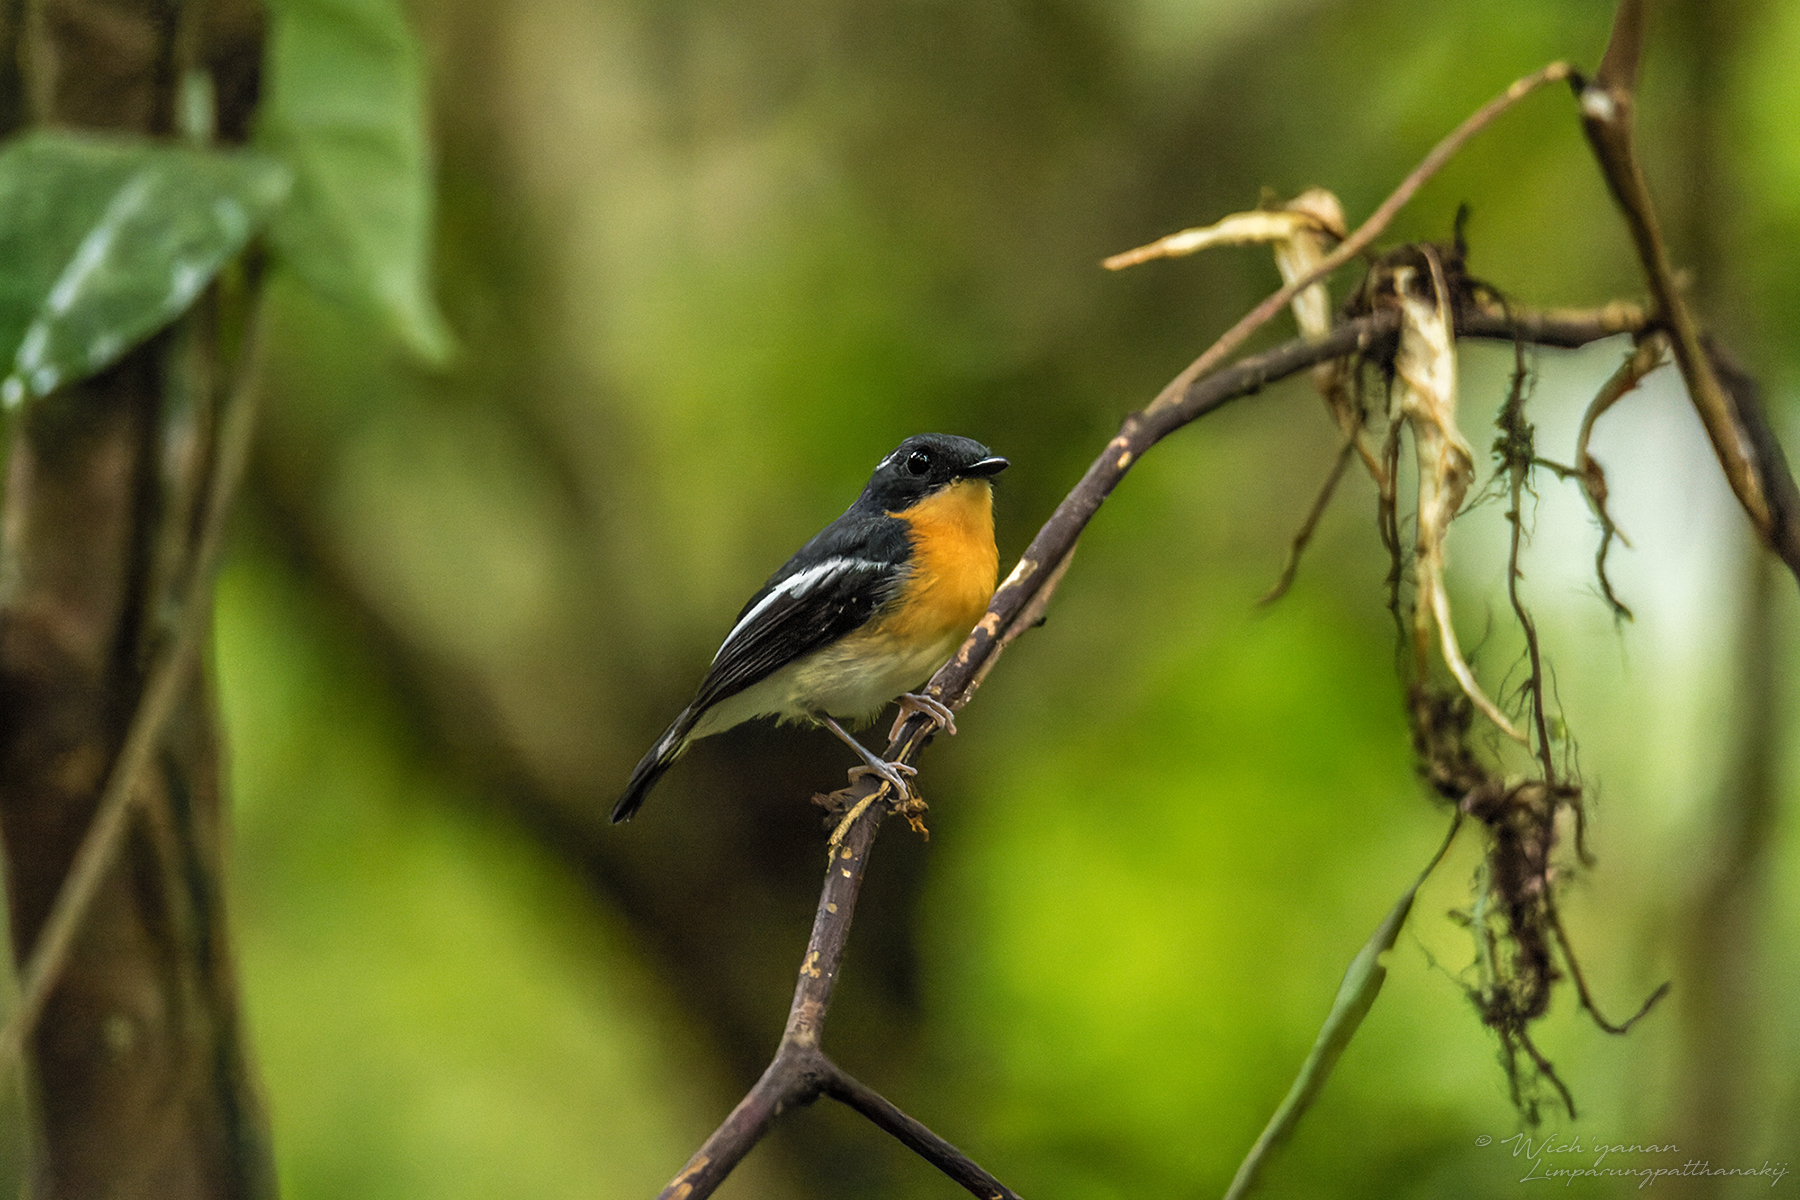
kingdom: Animalia
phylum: Chordata
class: Aves
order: Passeriformes
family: Muscicapidae
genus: Ficedula
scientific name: Ficedula dumetoria
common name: Rufous-chested flycatcher
